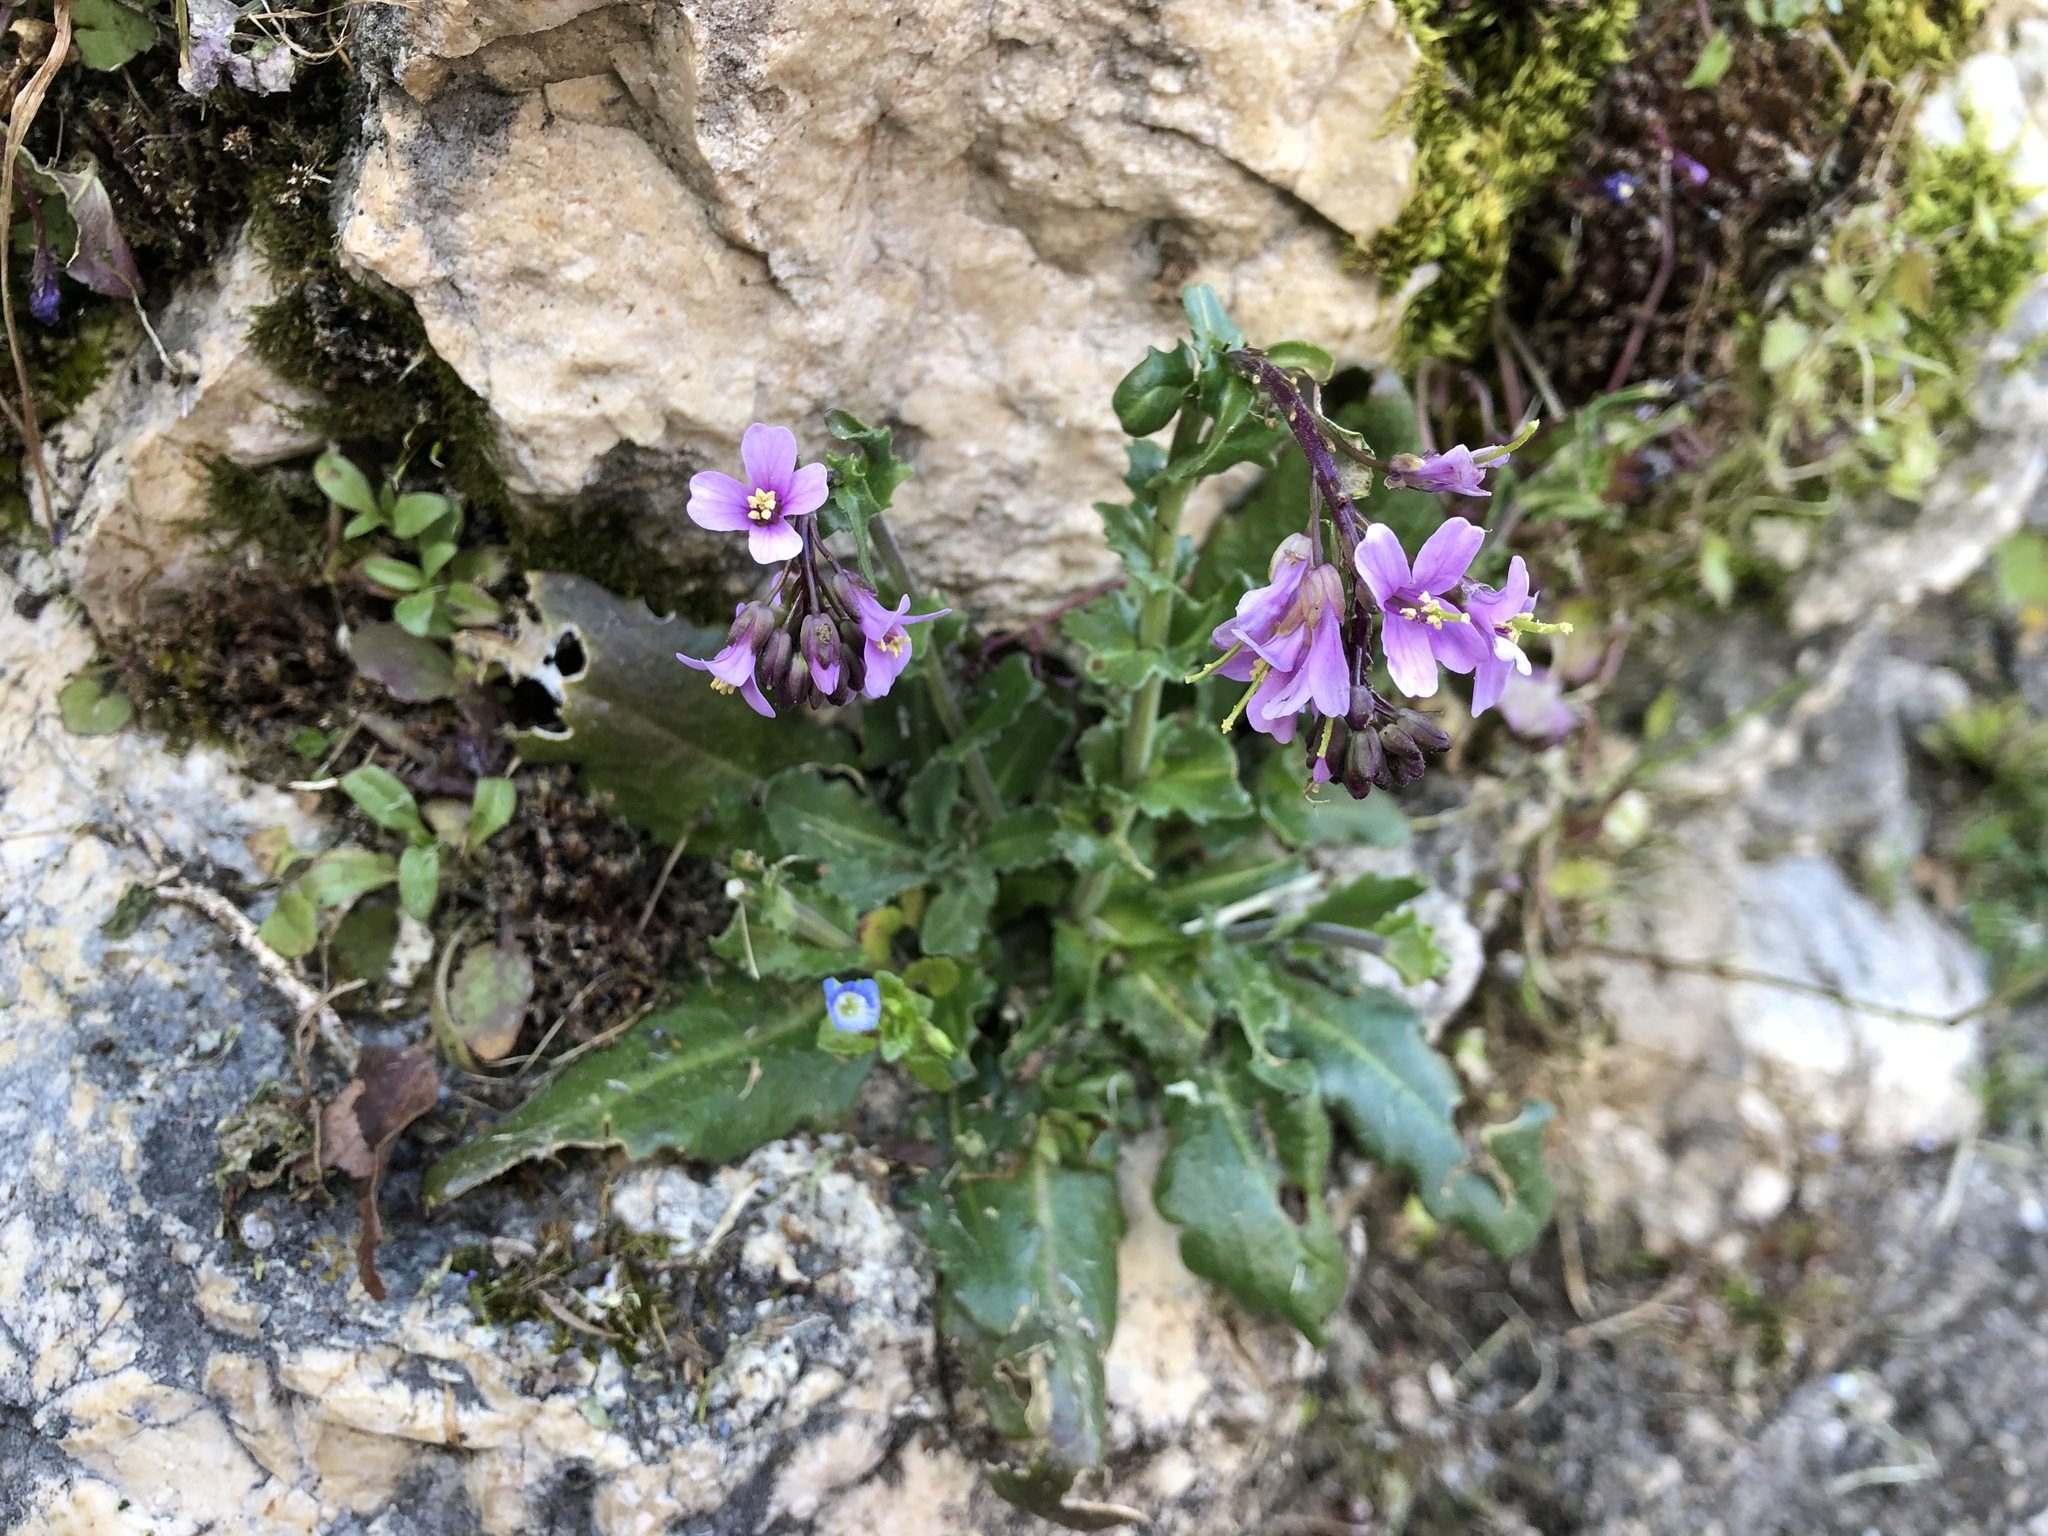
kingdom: Plantae
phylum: Tracheophyta
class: Magnoliopsida
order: Brassicales
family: Brassicaceae
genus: Arabis
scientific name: Arabis collina
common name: Rosy cress
